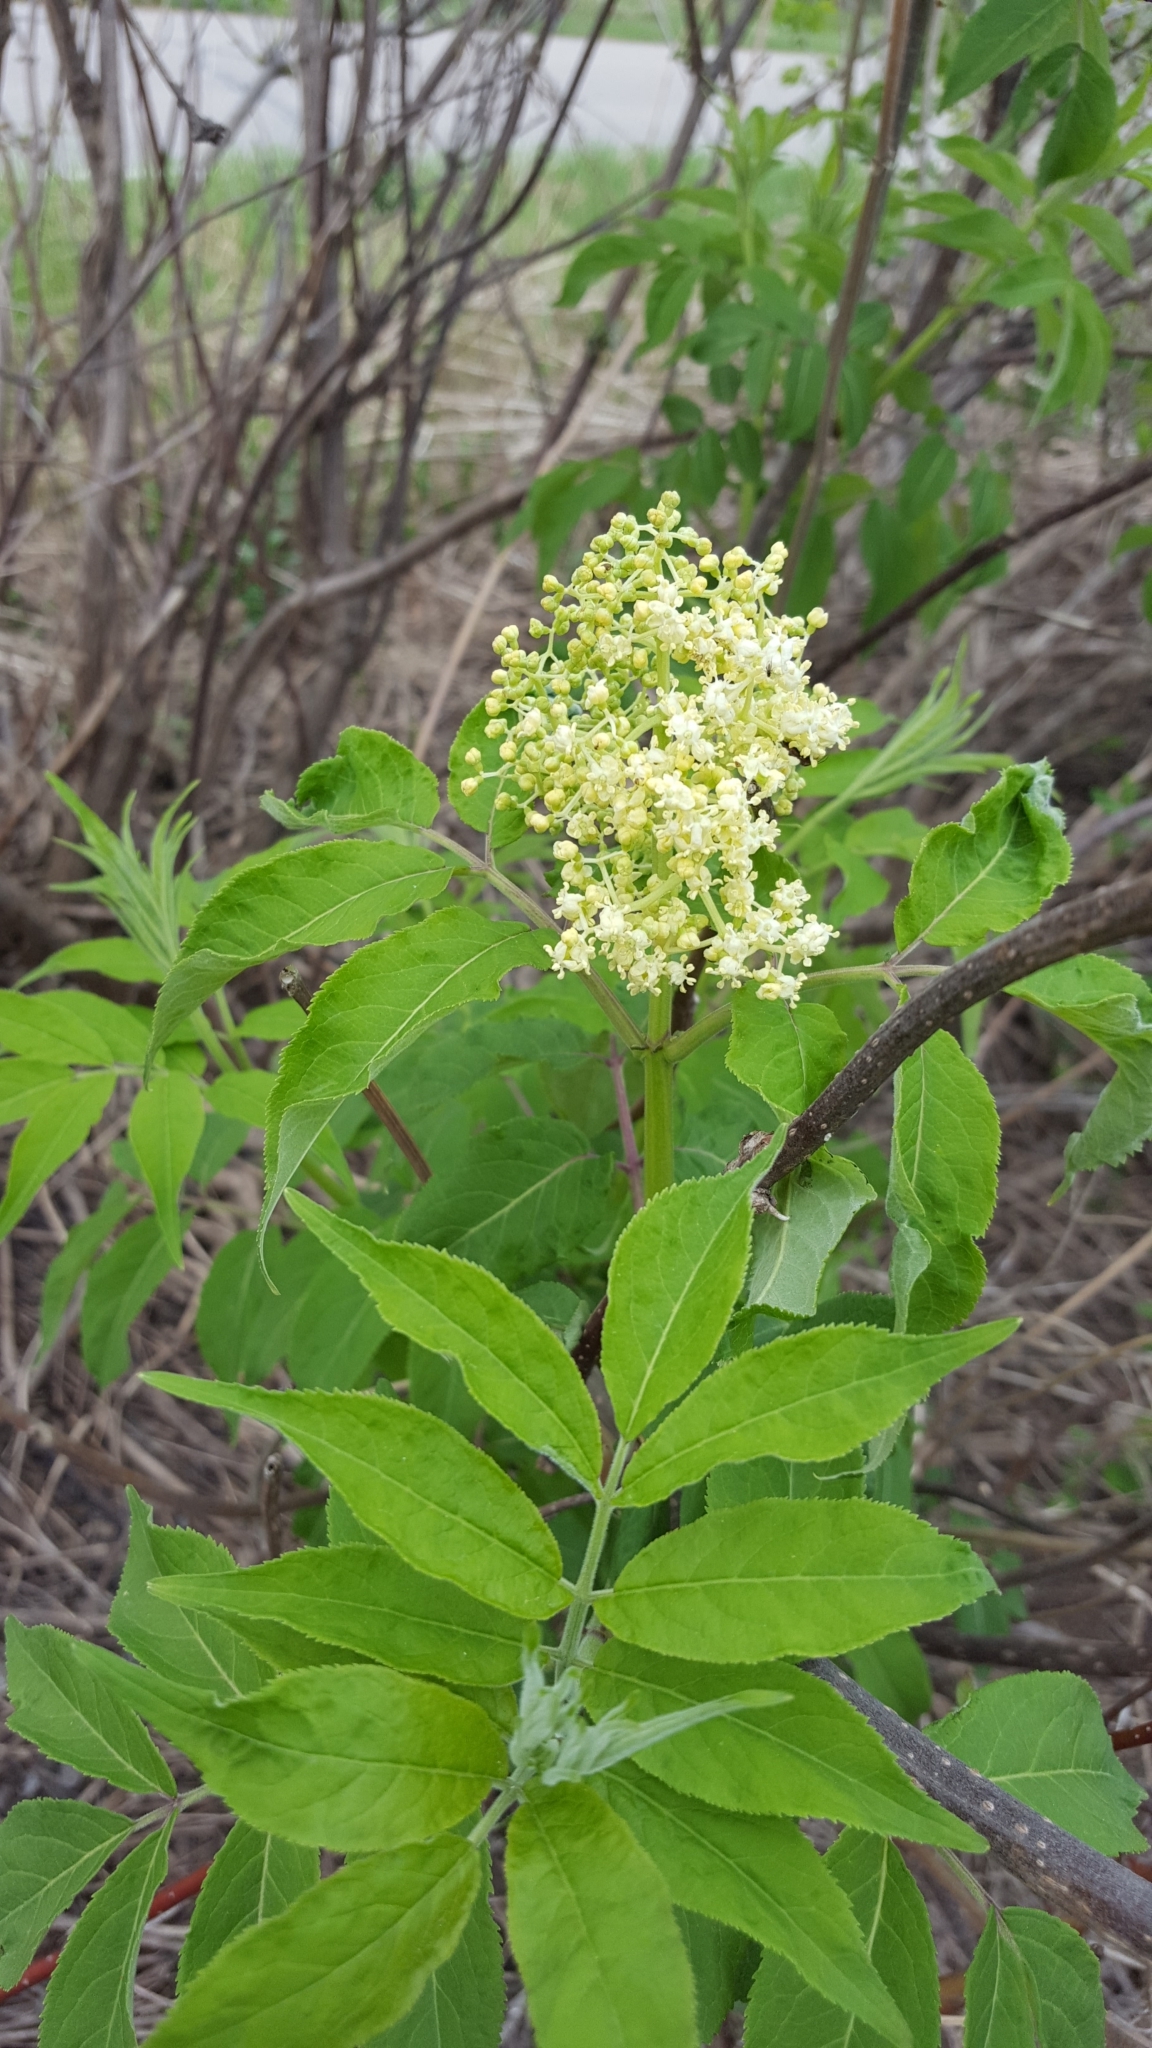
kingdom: Plantae
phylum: Tracheophyta
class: Magnoliopsida
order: Dipsacales
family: Viburnaceae
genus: Sambucus
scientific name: Sambucus racemosa
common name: Red-berried elder
